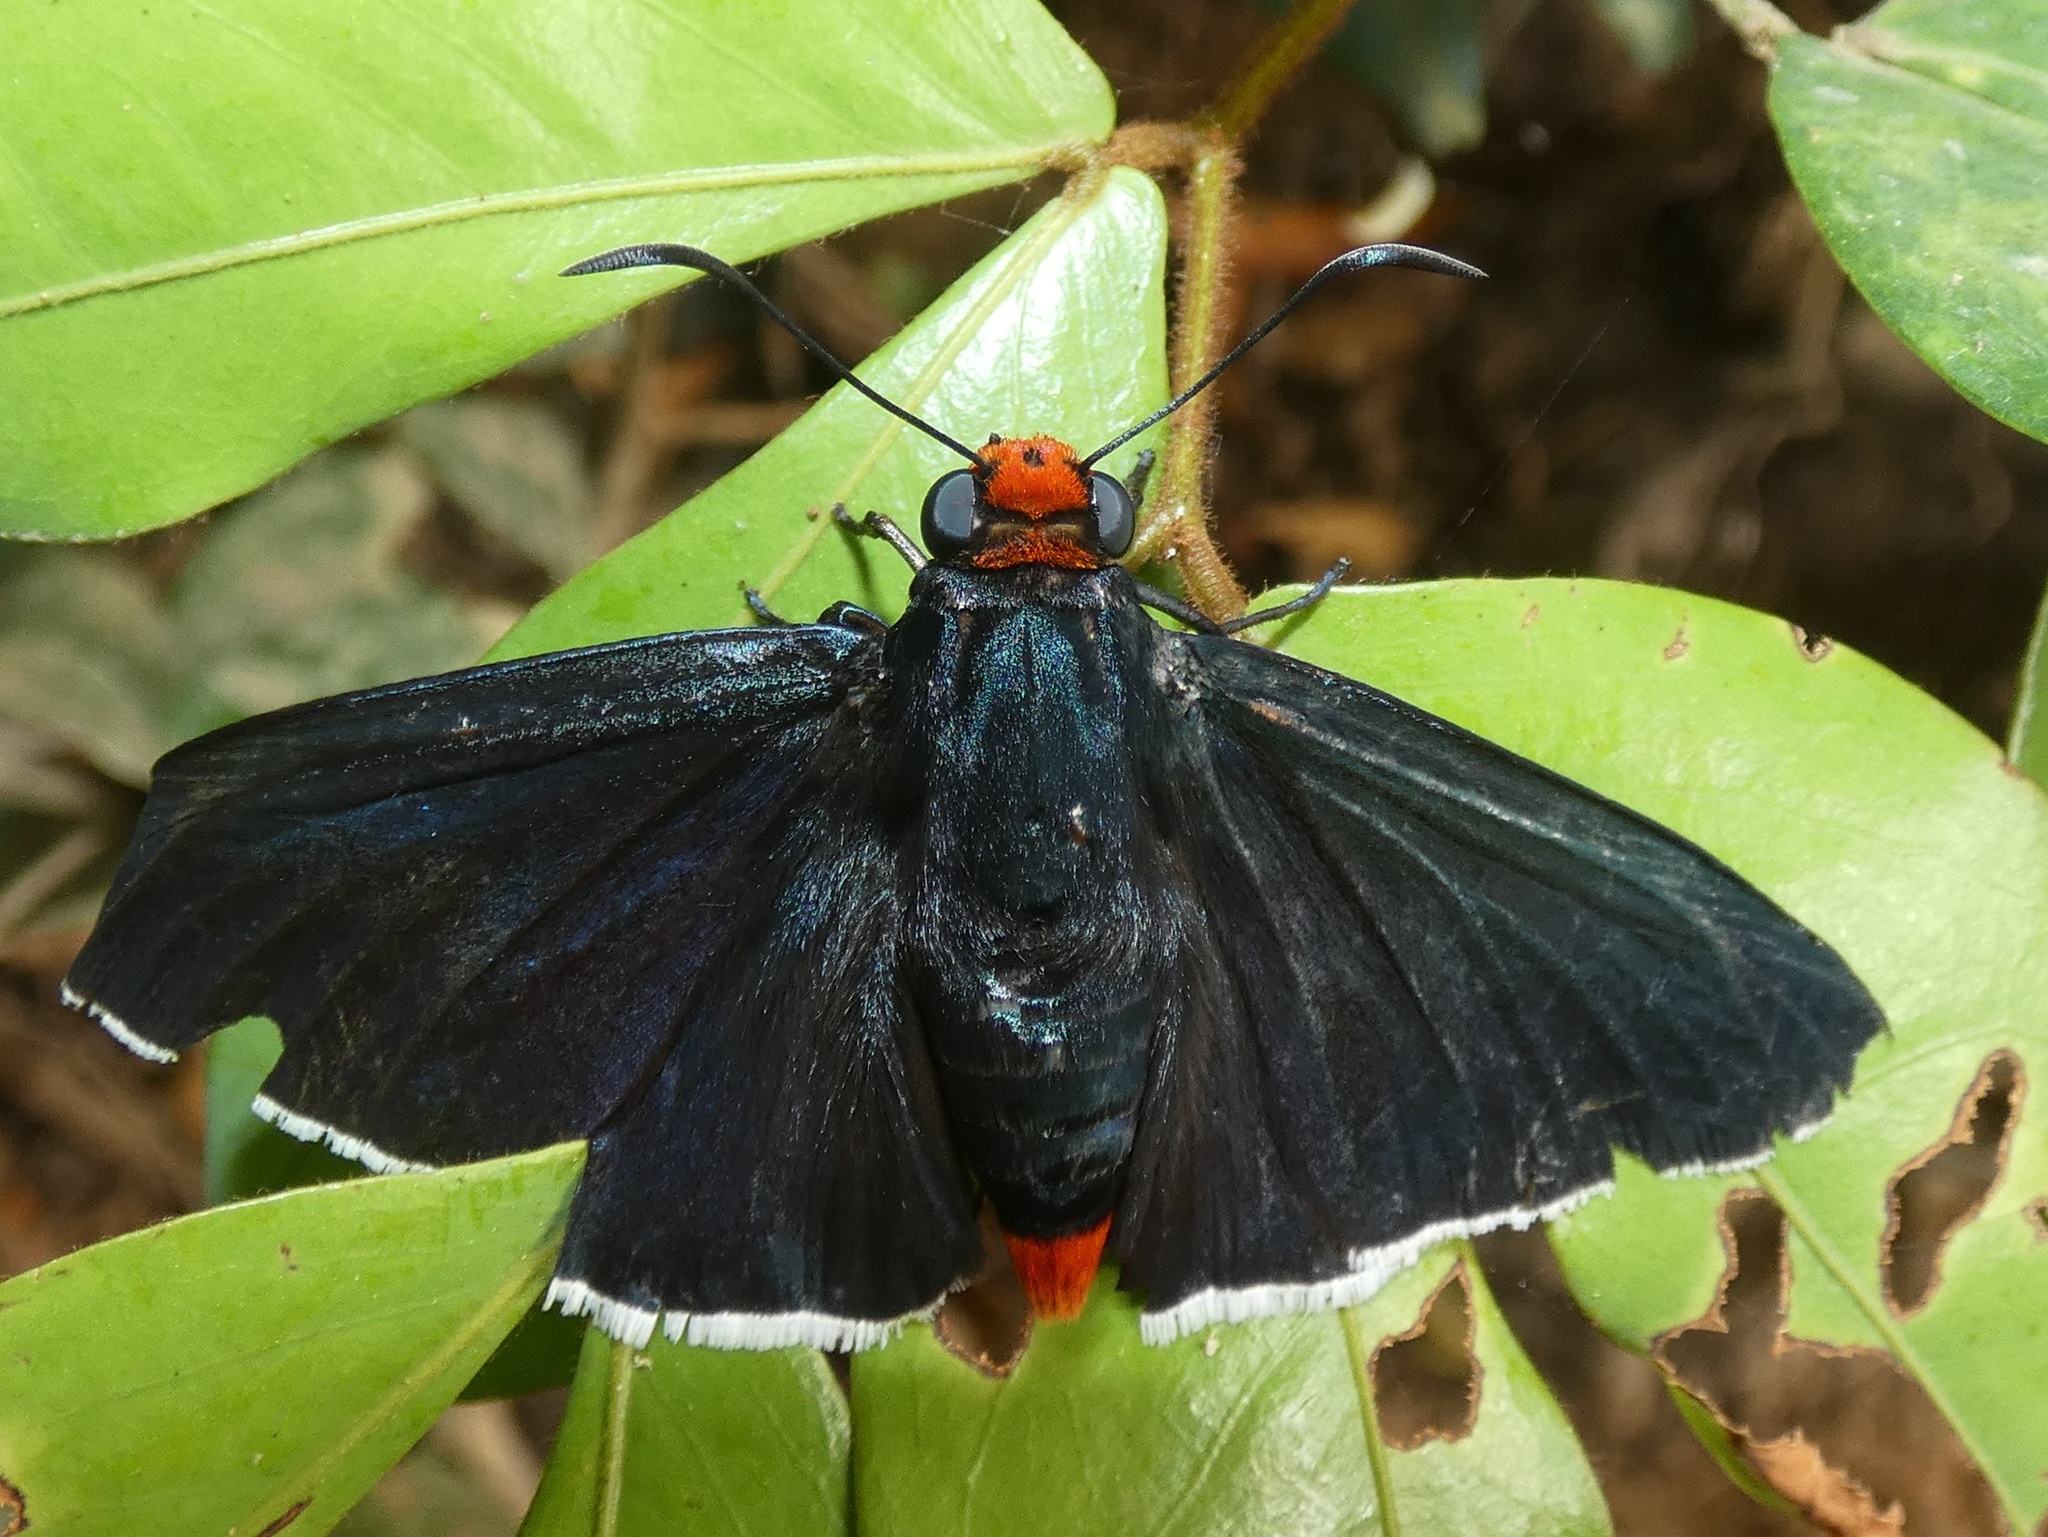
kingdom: Animalia
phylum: Arthropoda
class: Insecta
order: Lepidoptera
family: Hesperiidae
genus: Pyrrhopyge
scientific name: Pyrrhopyge phidias
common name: Original firetip
